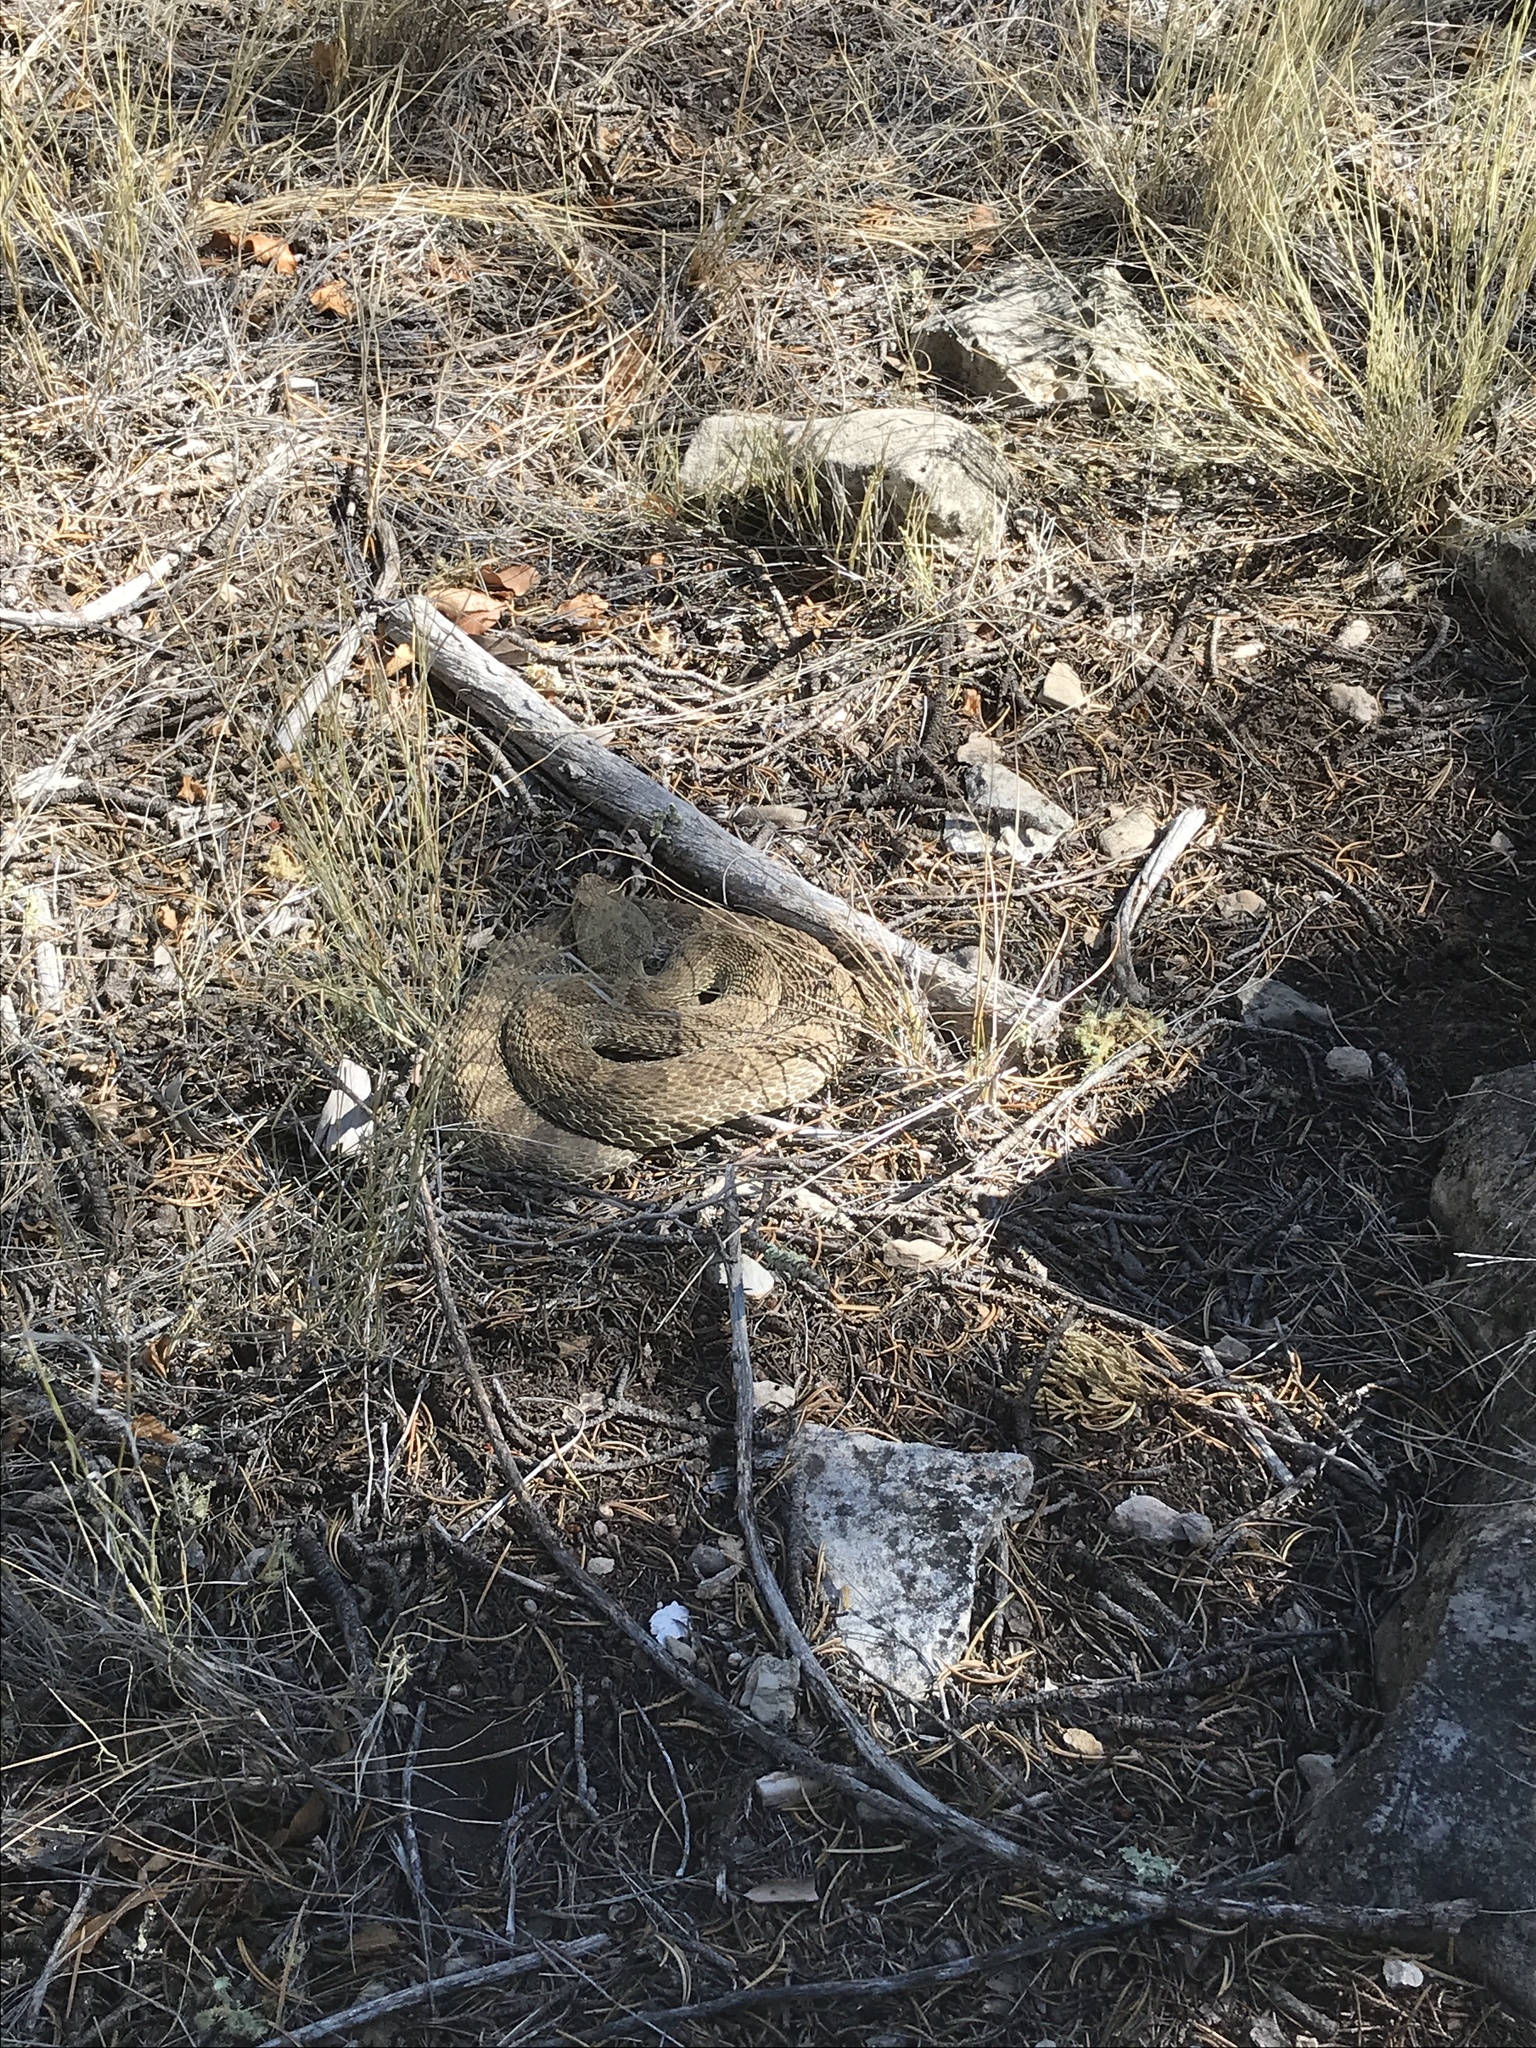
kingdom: Animalia
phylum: Chordata
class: Squamata
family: Viperidae
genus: Crotalus
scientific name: Crotalus viridis
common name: Prairie rattlesnake
